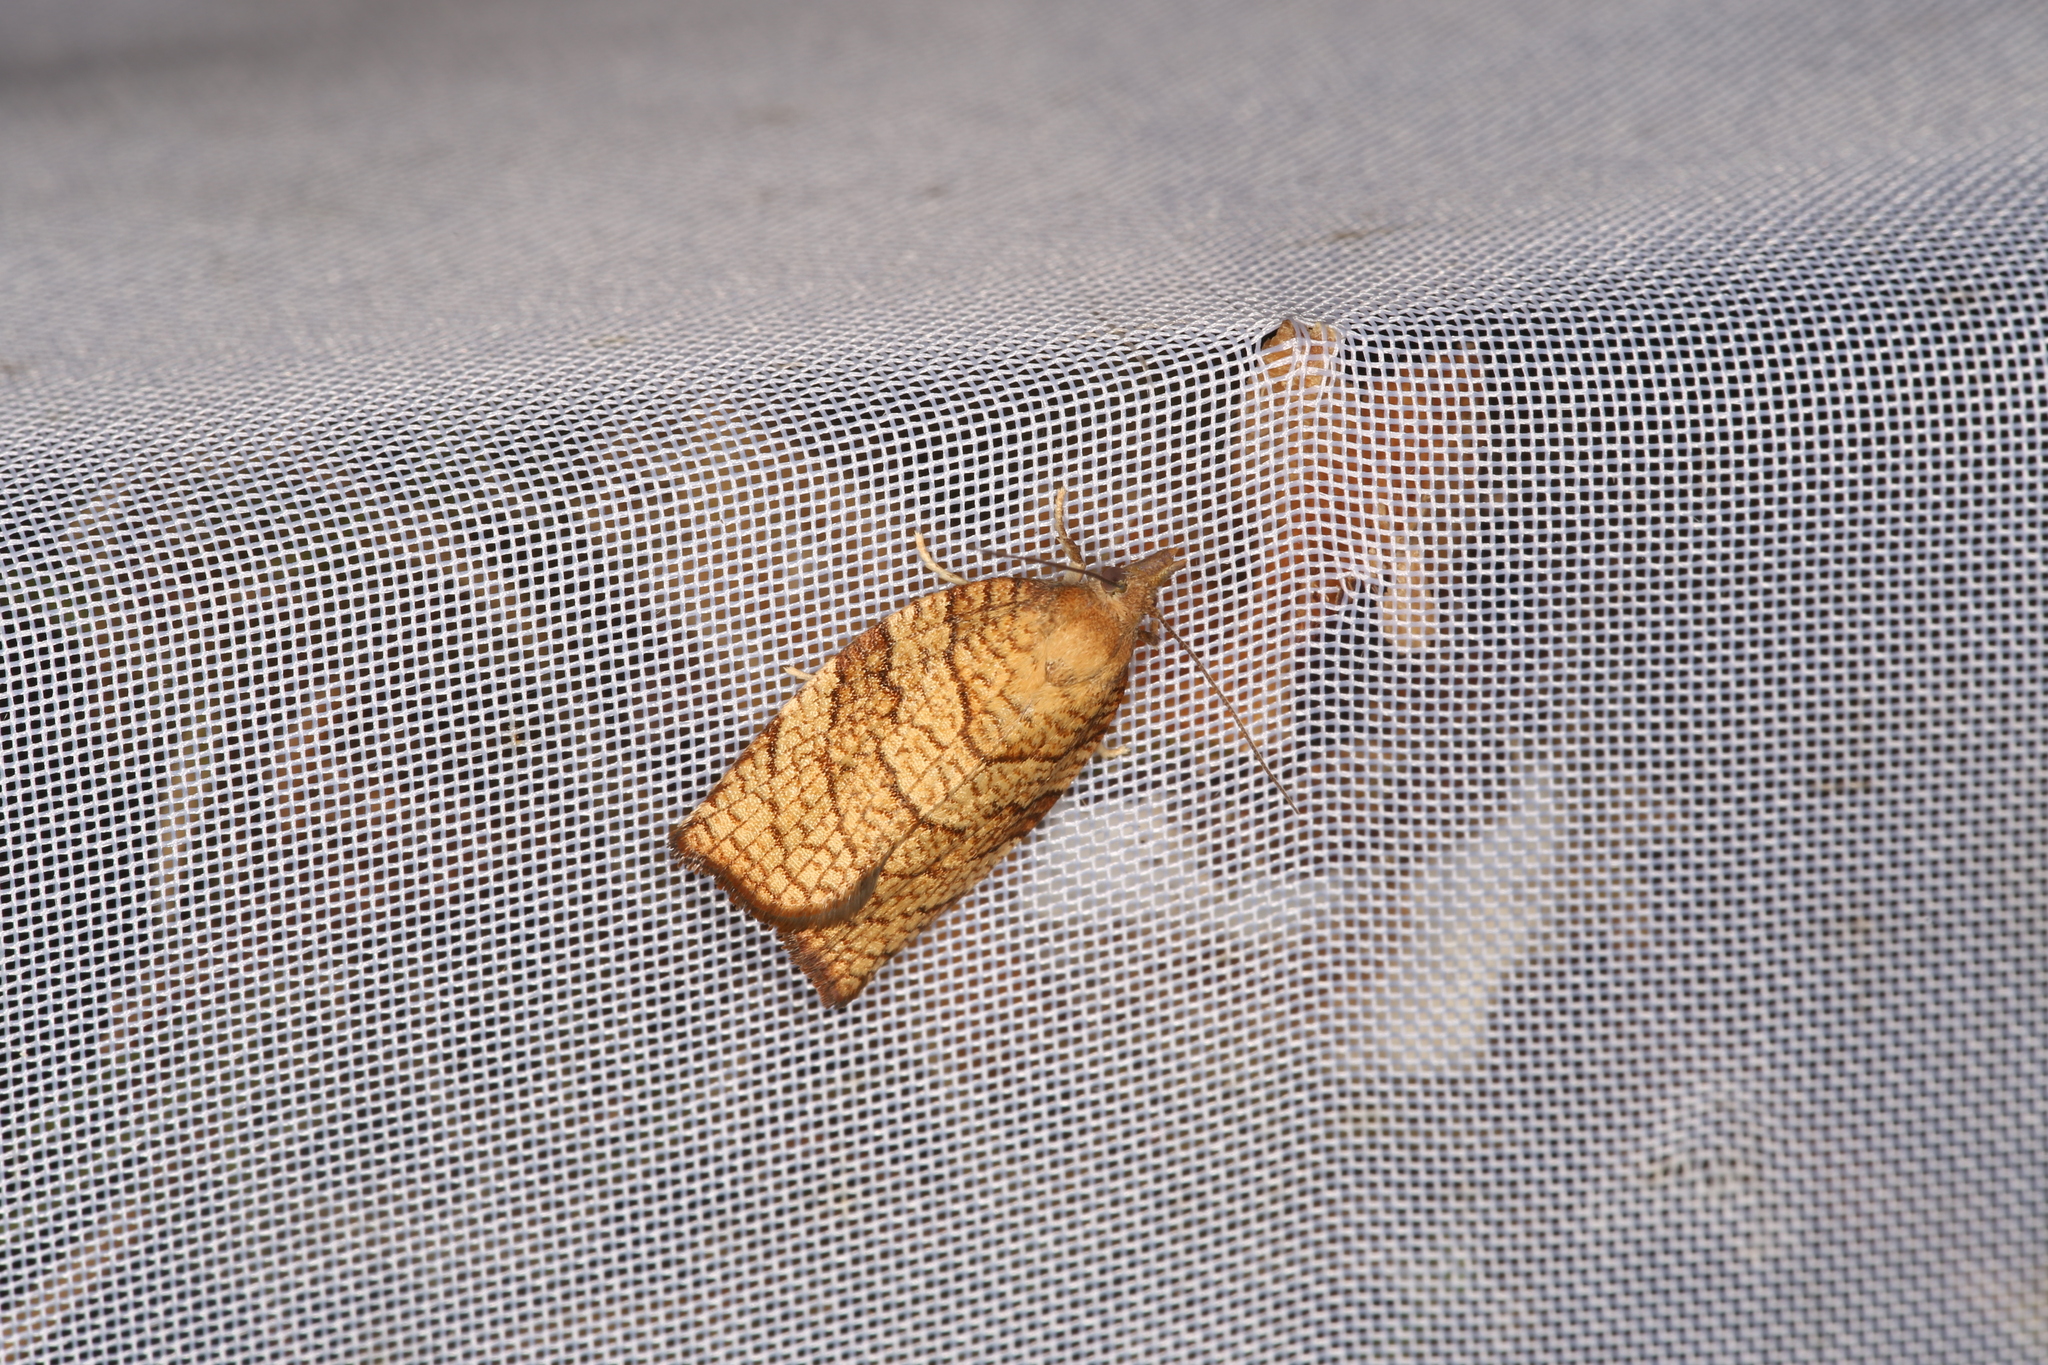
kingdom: Animalia
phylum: Arthropoda
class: Insecta
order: Lepidoptera
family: Tortricidae
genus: Pandemis
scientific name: Pandemis corylana
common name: Chequered fruit-tree tortrix
